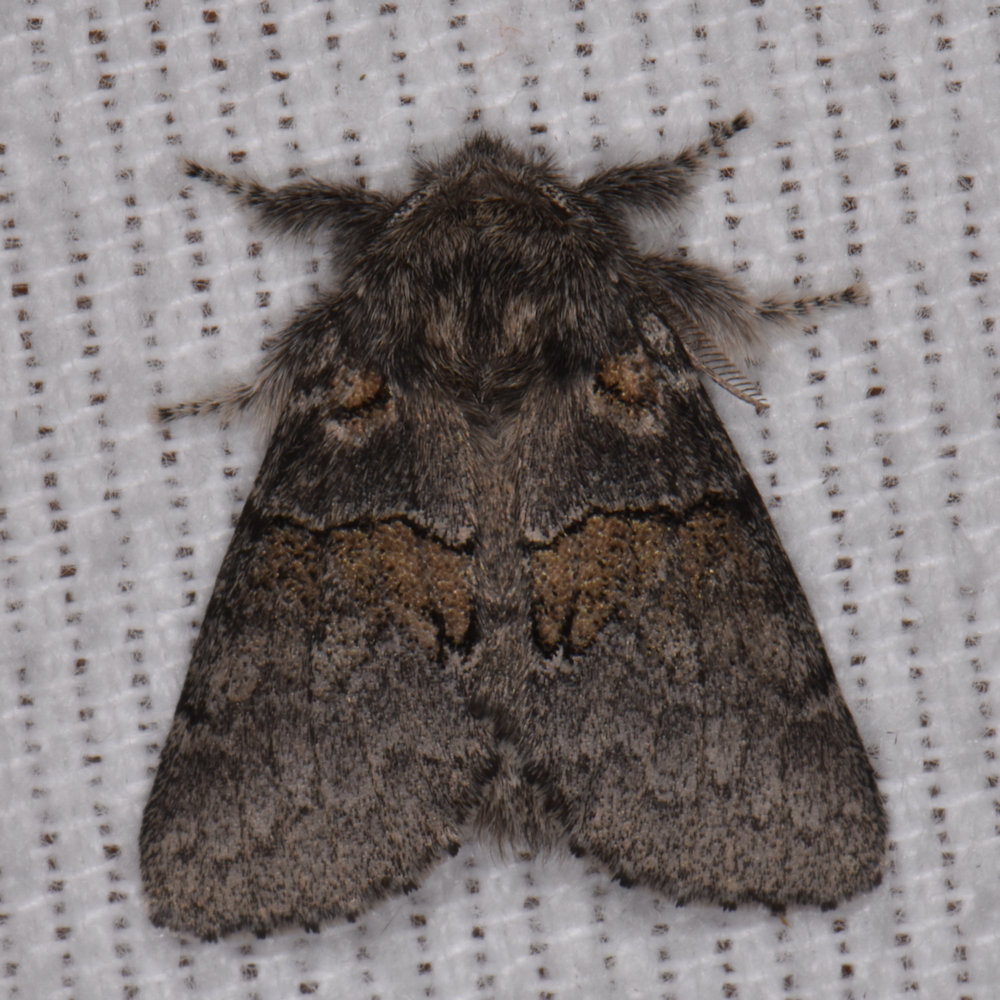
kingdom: Animalia
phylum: Arthropoda
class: Insecta
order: Lepidoptera
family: Notodontidae
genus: Gluphisia
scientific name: Gluphisia septentrionis
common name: Common gluphisia
